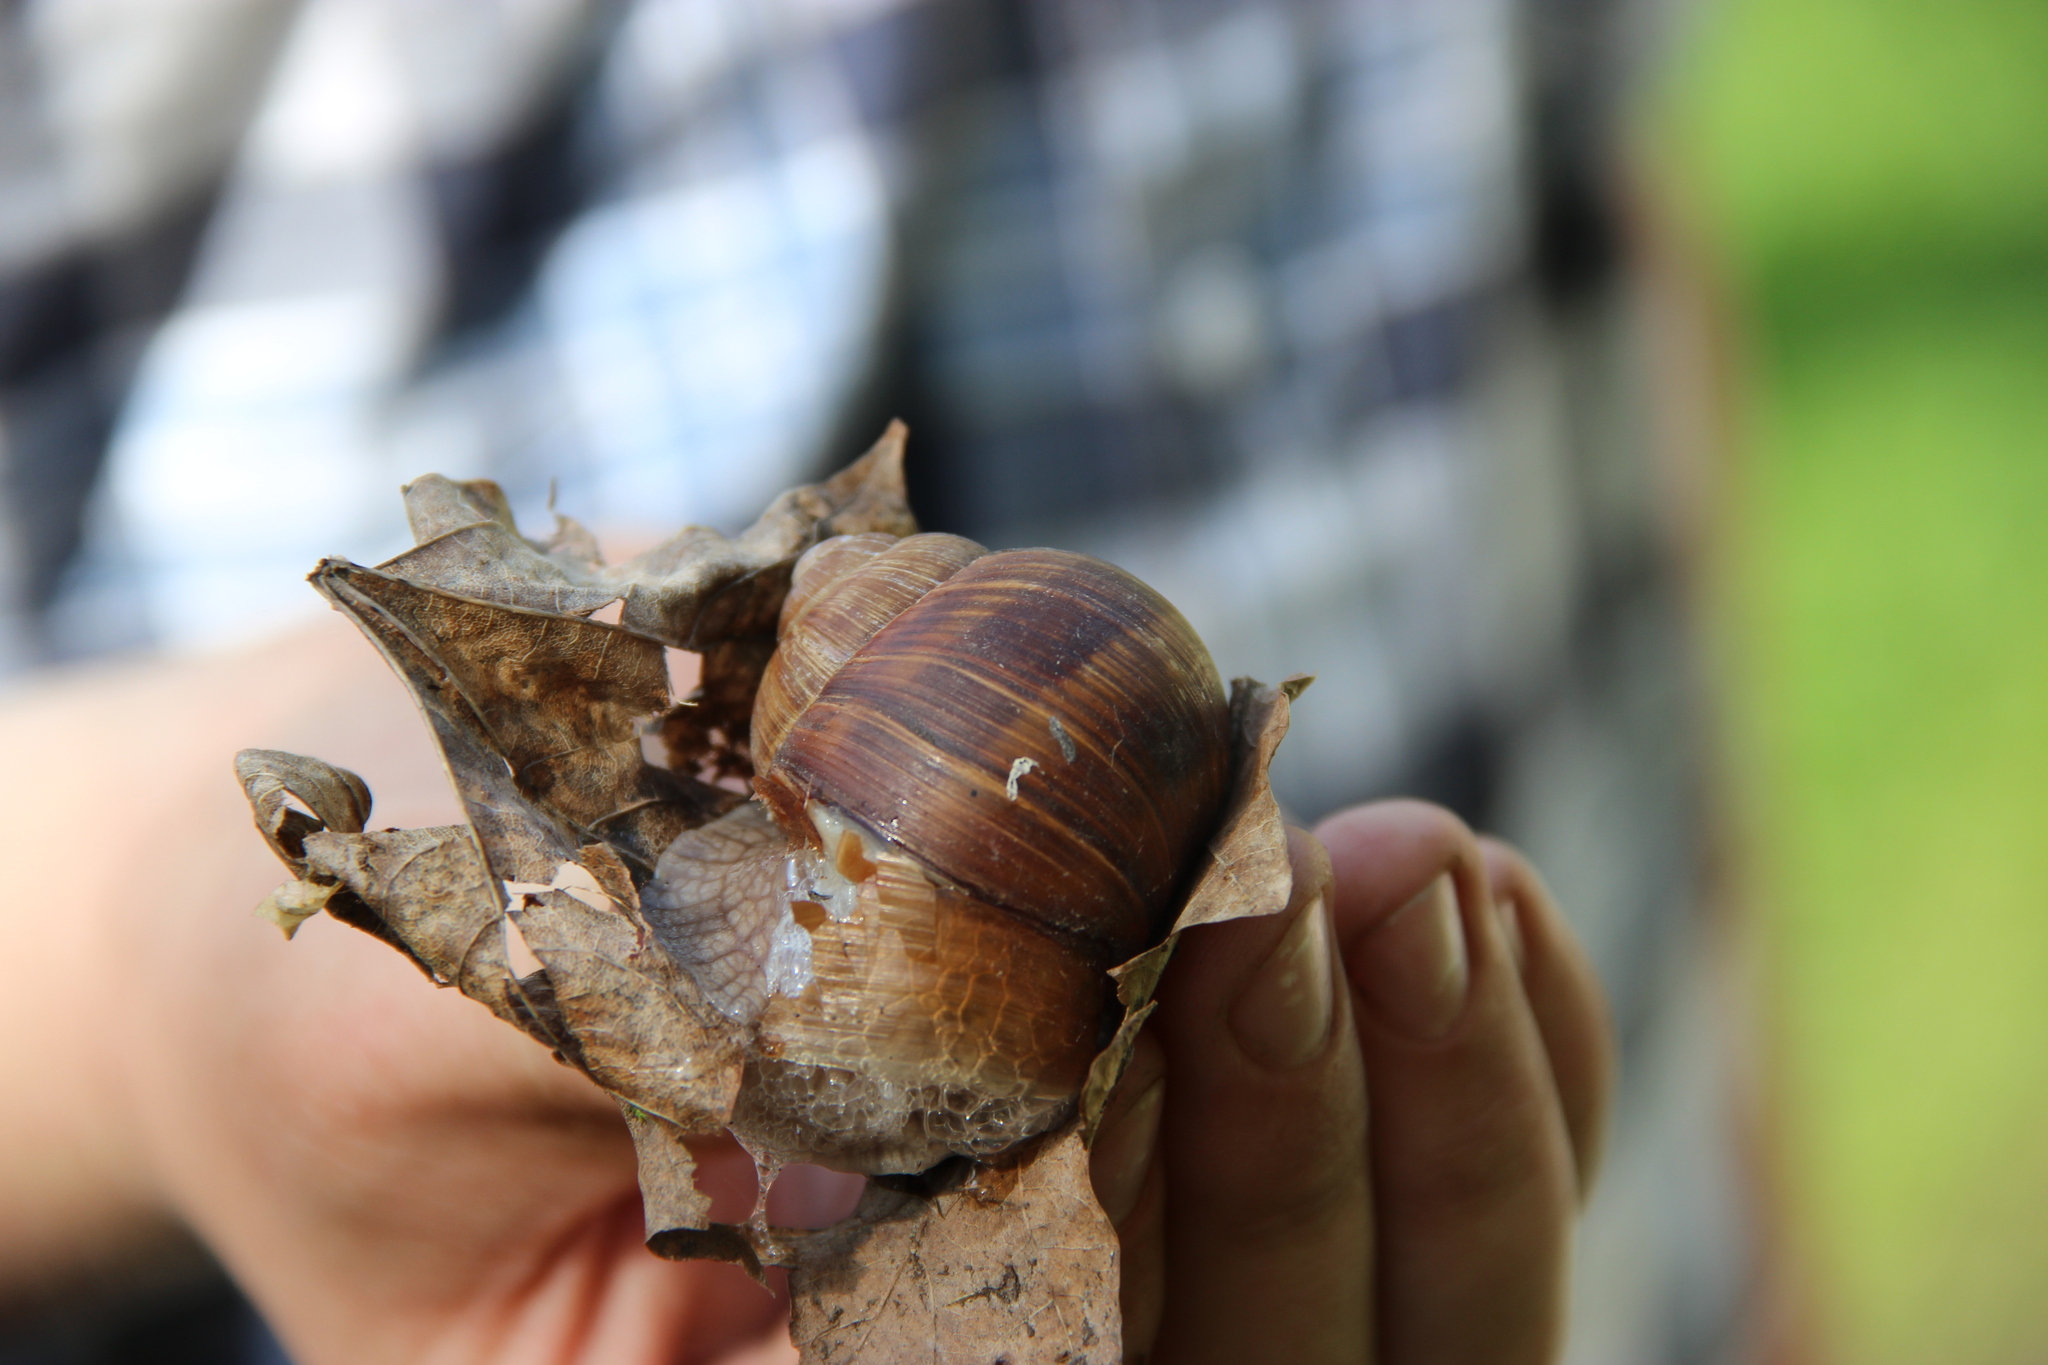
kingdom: Animalia
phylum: Mollusca
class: Gastropoda
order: Stylommatophora
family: Helicidae
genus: Helix
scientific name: Helix pomatia
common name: Roman snail
